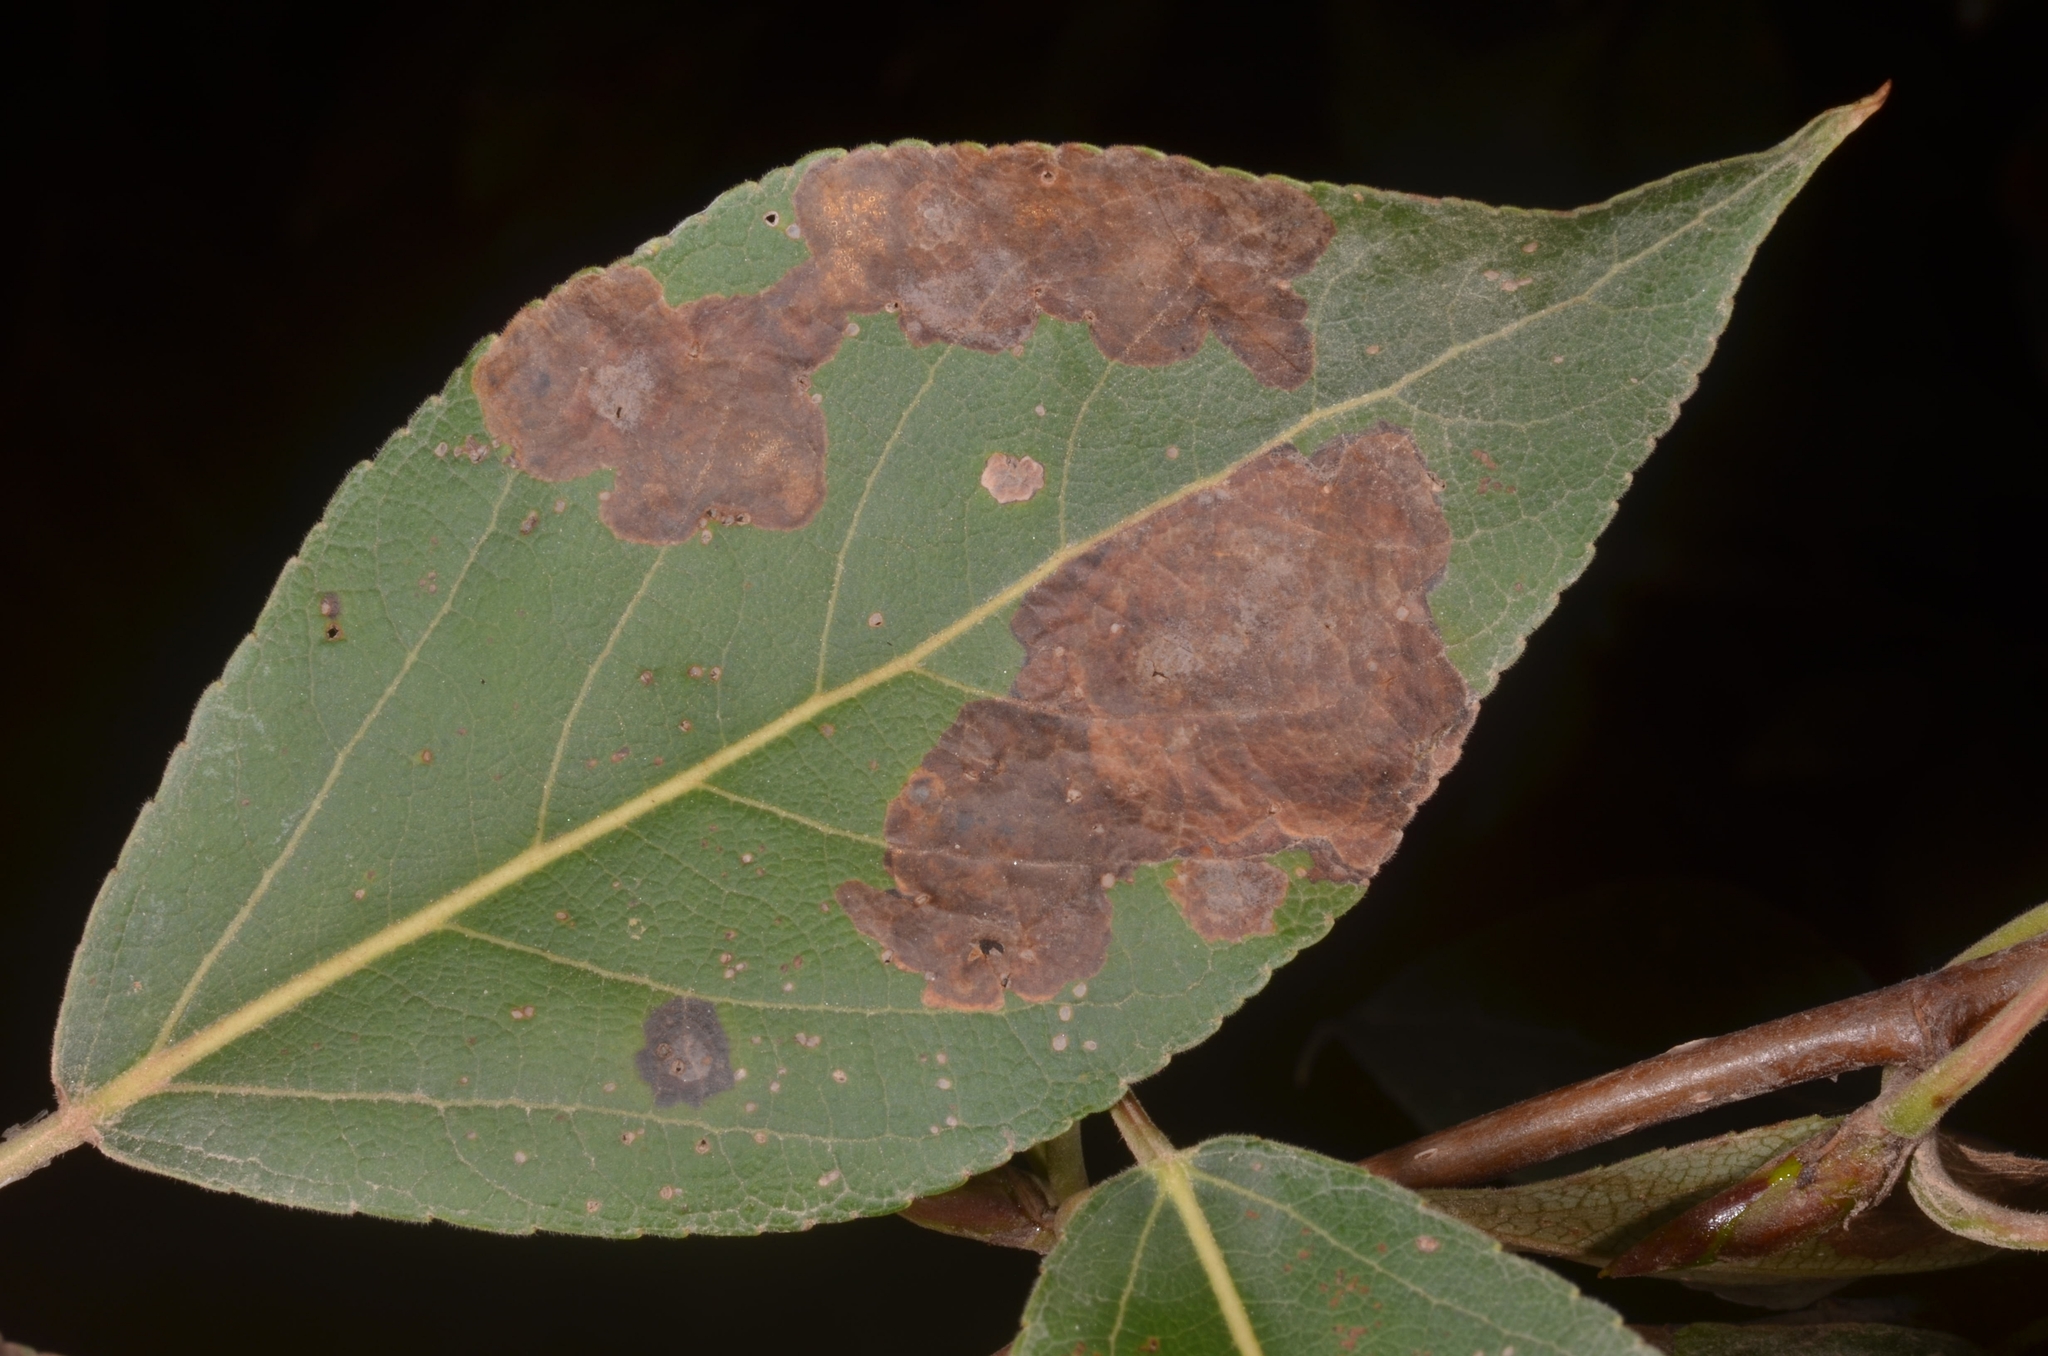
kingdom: Animalia
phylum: Arthropoda
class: Insecta
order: Coleoptera
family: Curculionidae
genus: Isochnus
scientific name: Isochnus sequensi
